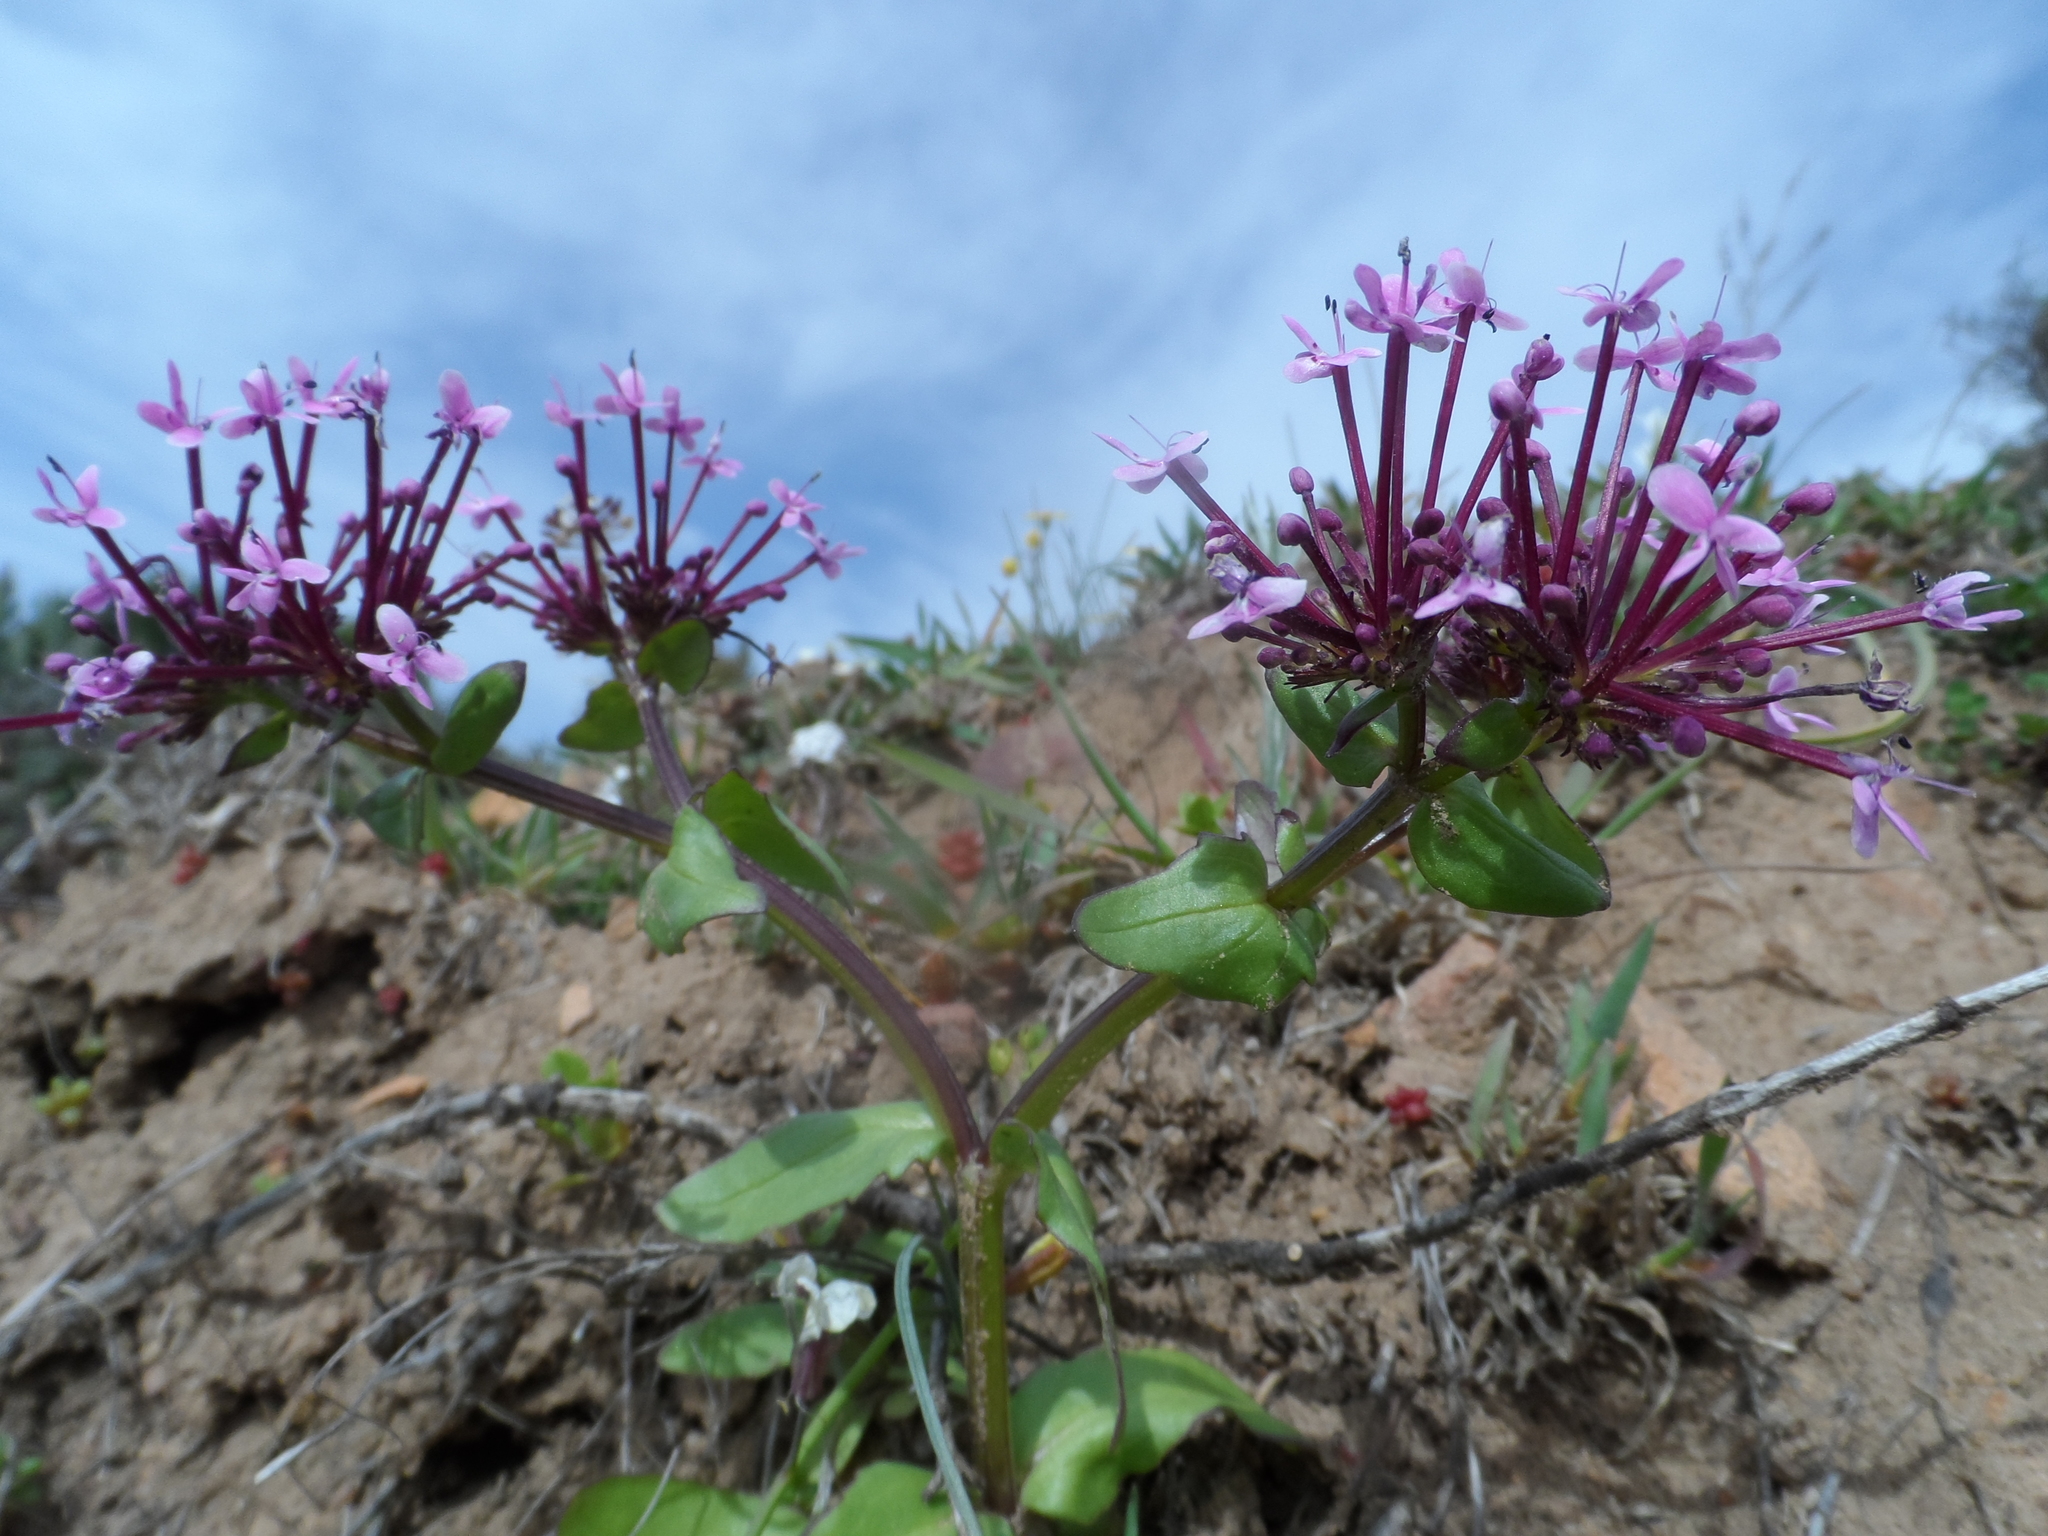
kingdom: Plantae
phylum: Tracheophyta
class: Magnoliopsida
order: Dipsacales
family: Caprifoliaceae
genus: Fedia
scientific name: Fedia graciliflora
